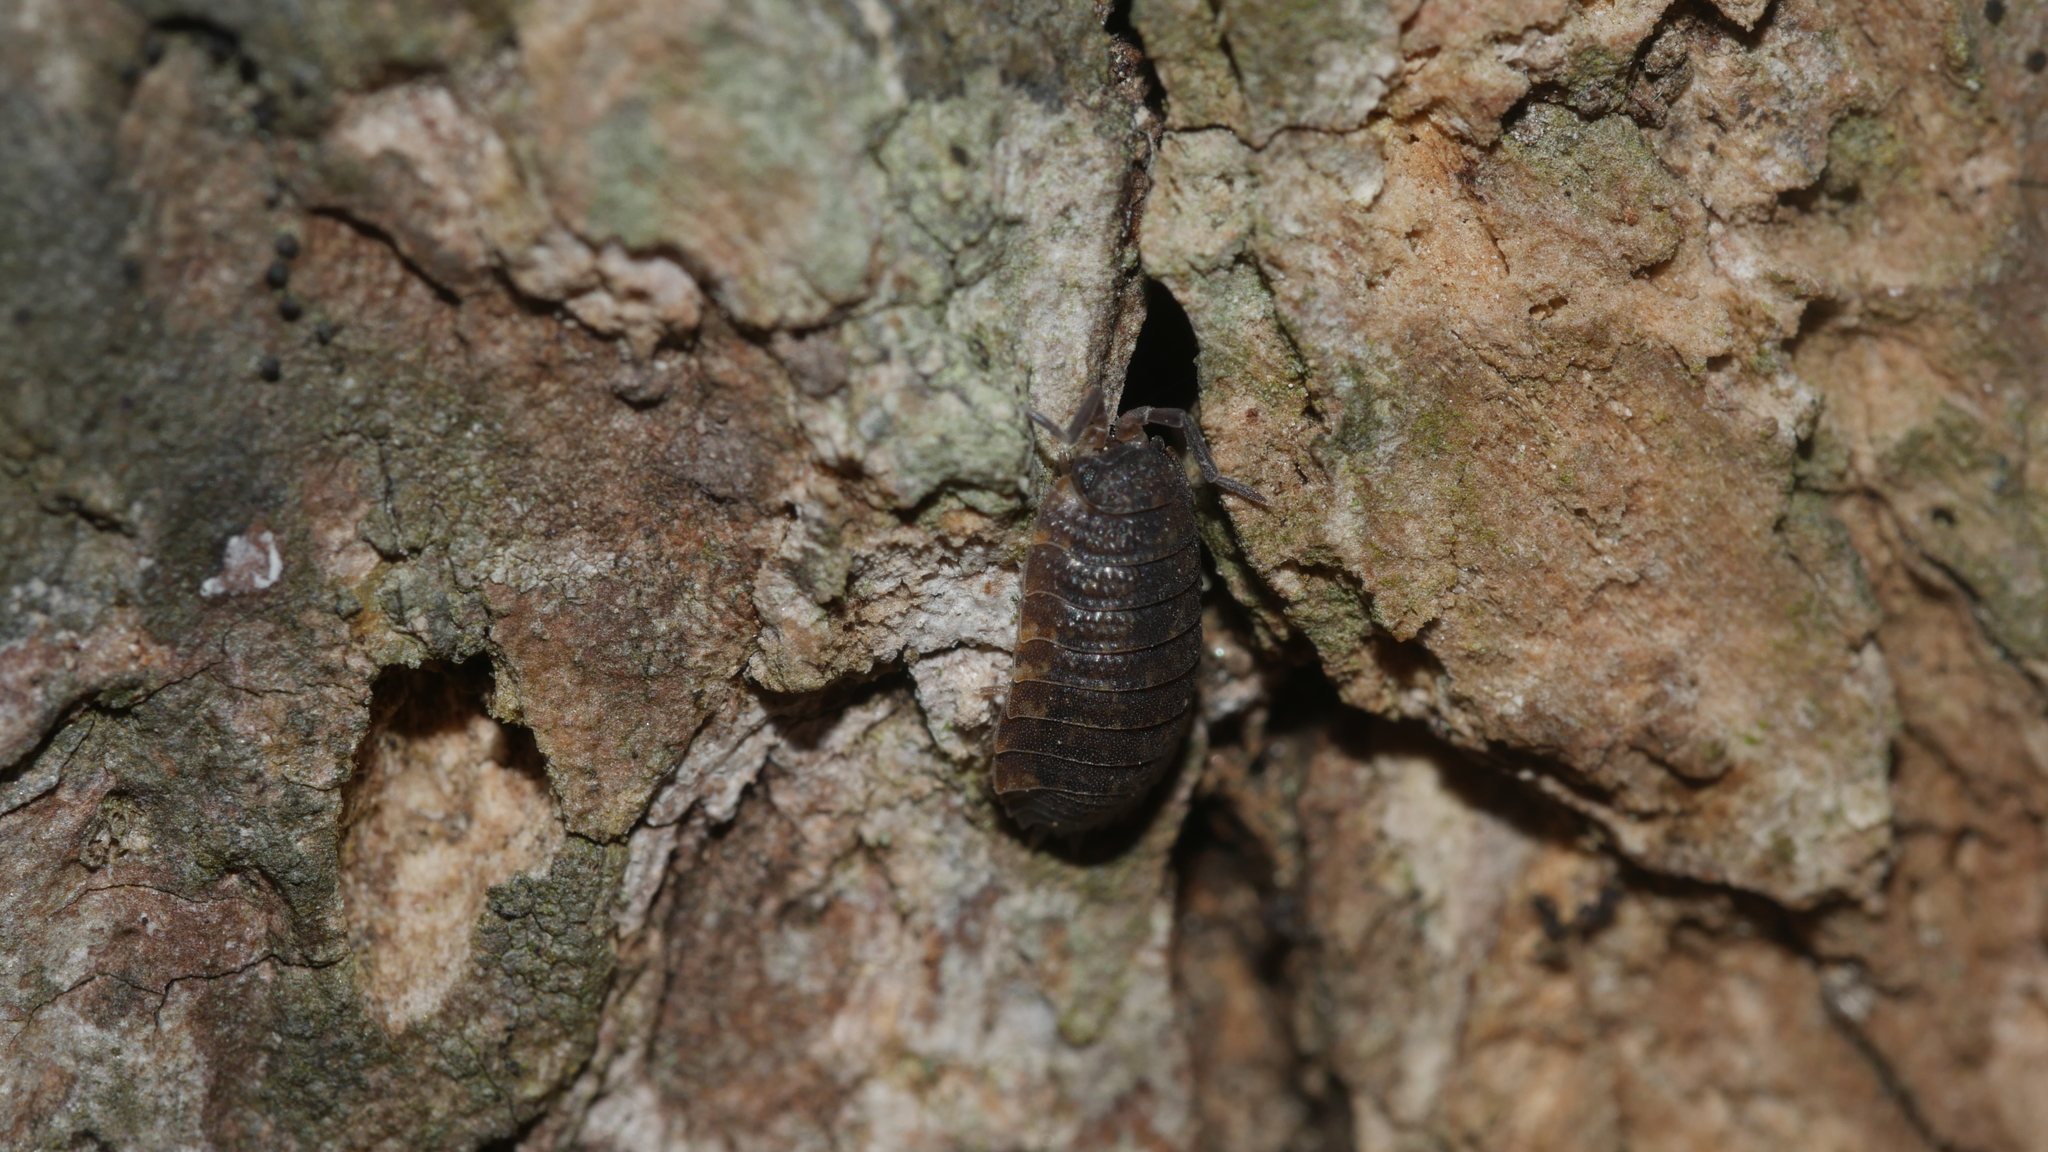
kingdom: Animalia
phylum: Arthropoda
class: Malacostraca
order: Isopoda
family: Porcellionidae
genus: Porcellio
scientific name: Porcellio scaber
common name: Common rough woodlouse
